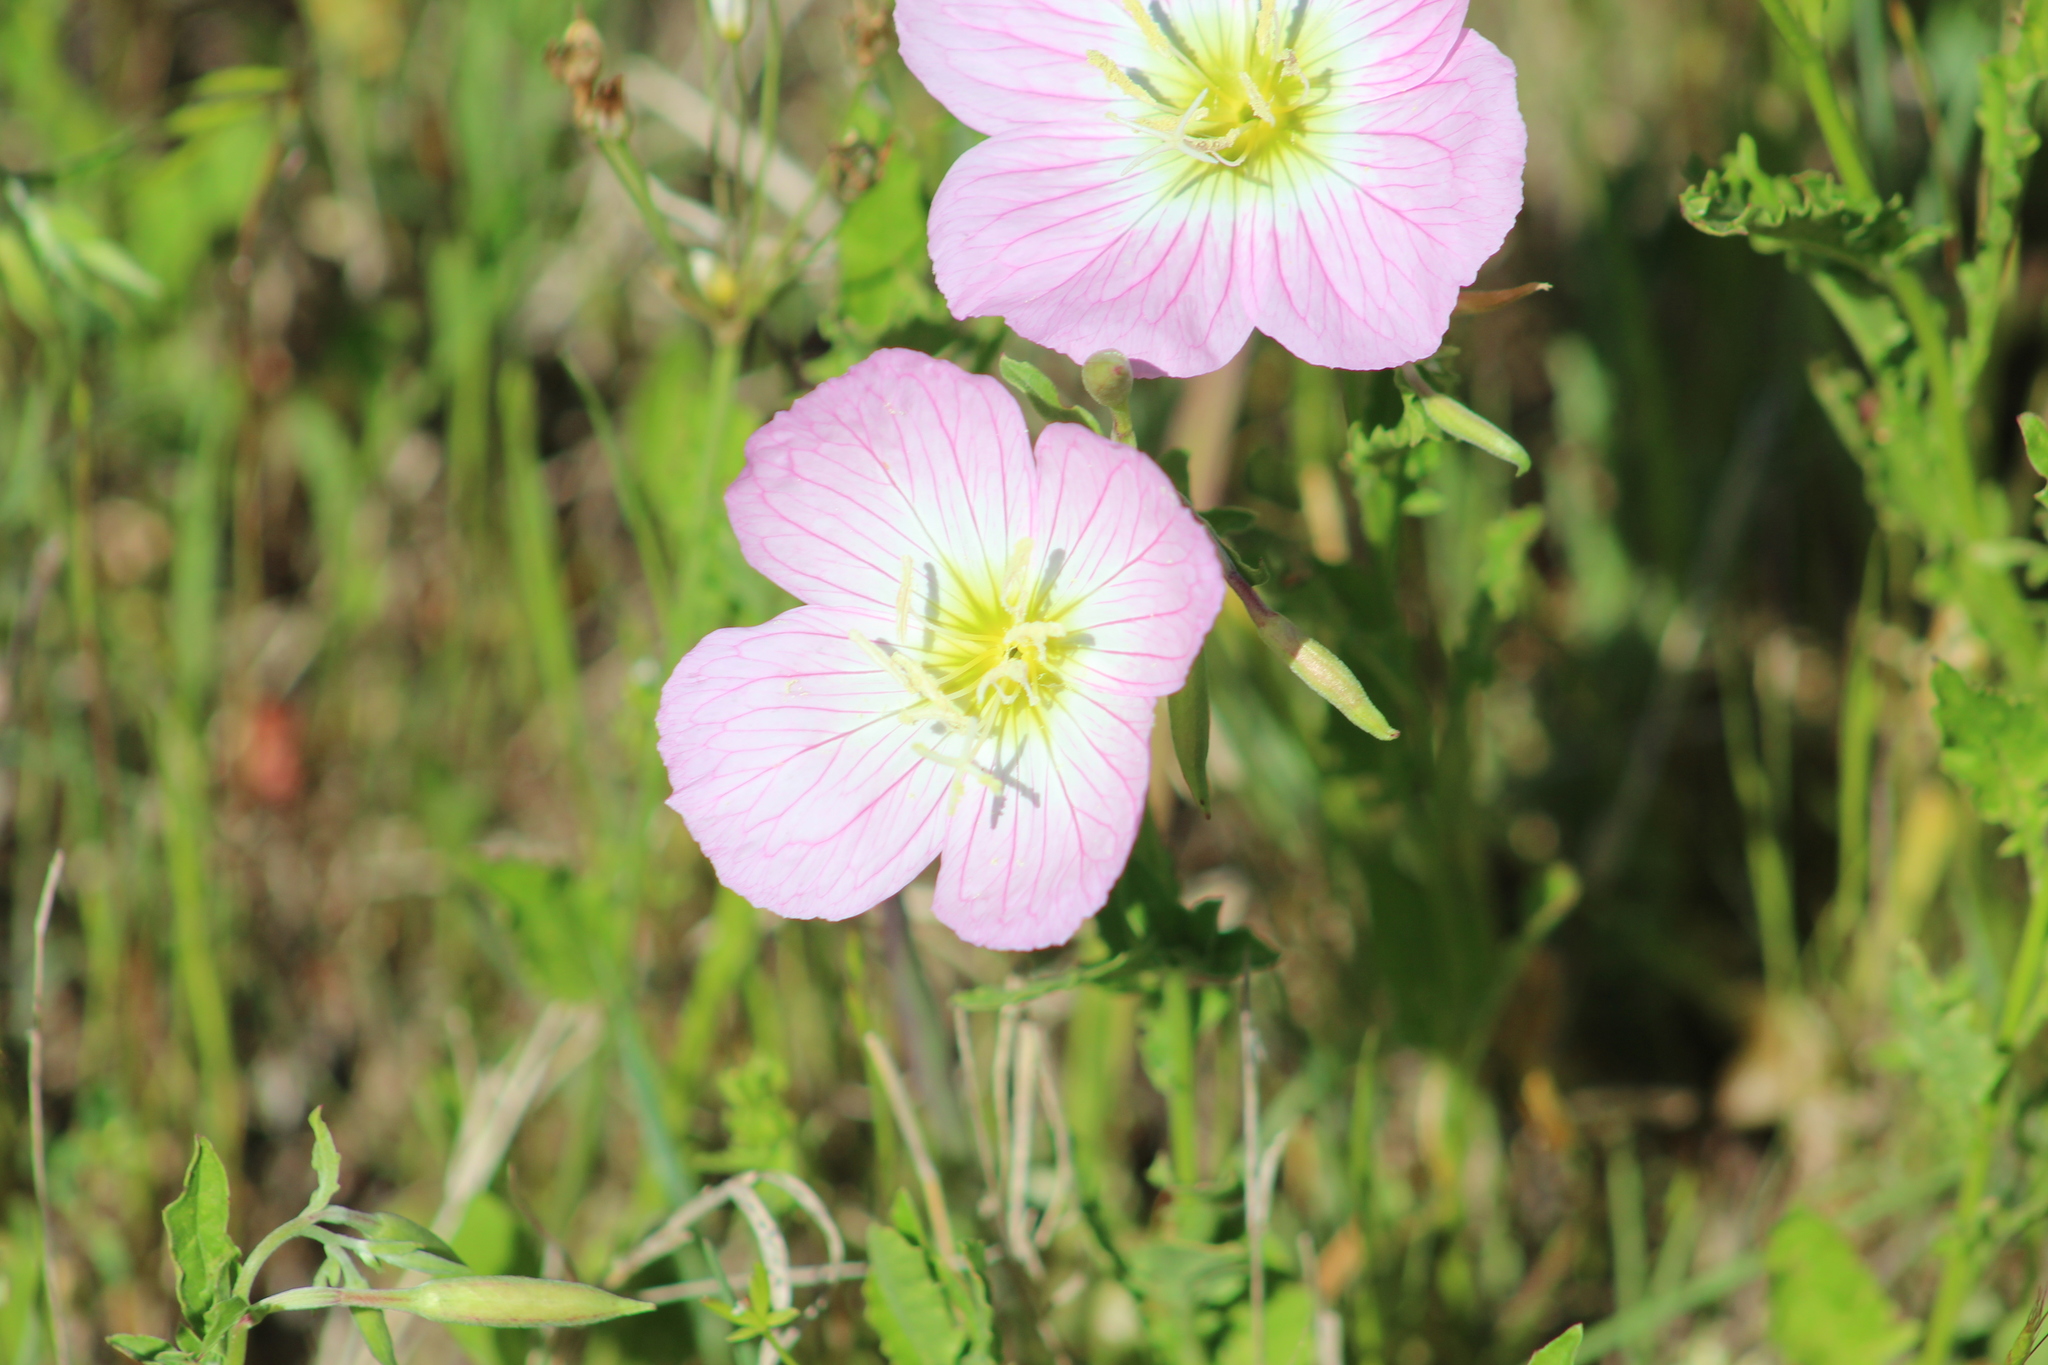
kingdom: Plantae
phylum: Tracheophyta
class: Magnoliopsida
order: Myrtales
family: Onagraceae
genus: Oenothera
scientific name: Oenothera speciosa
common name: White evening-primrose
